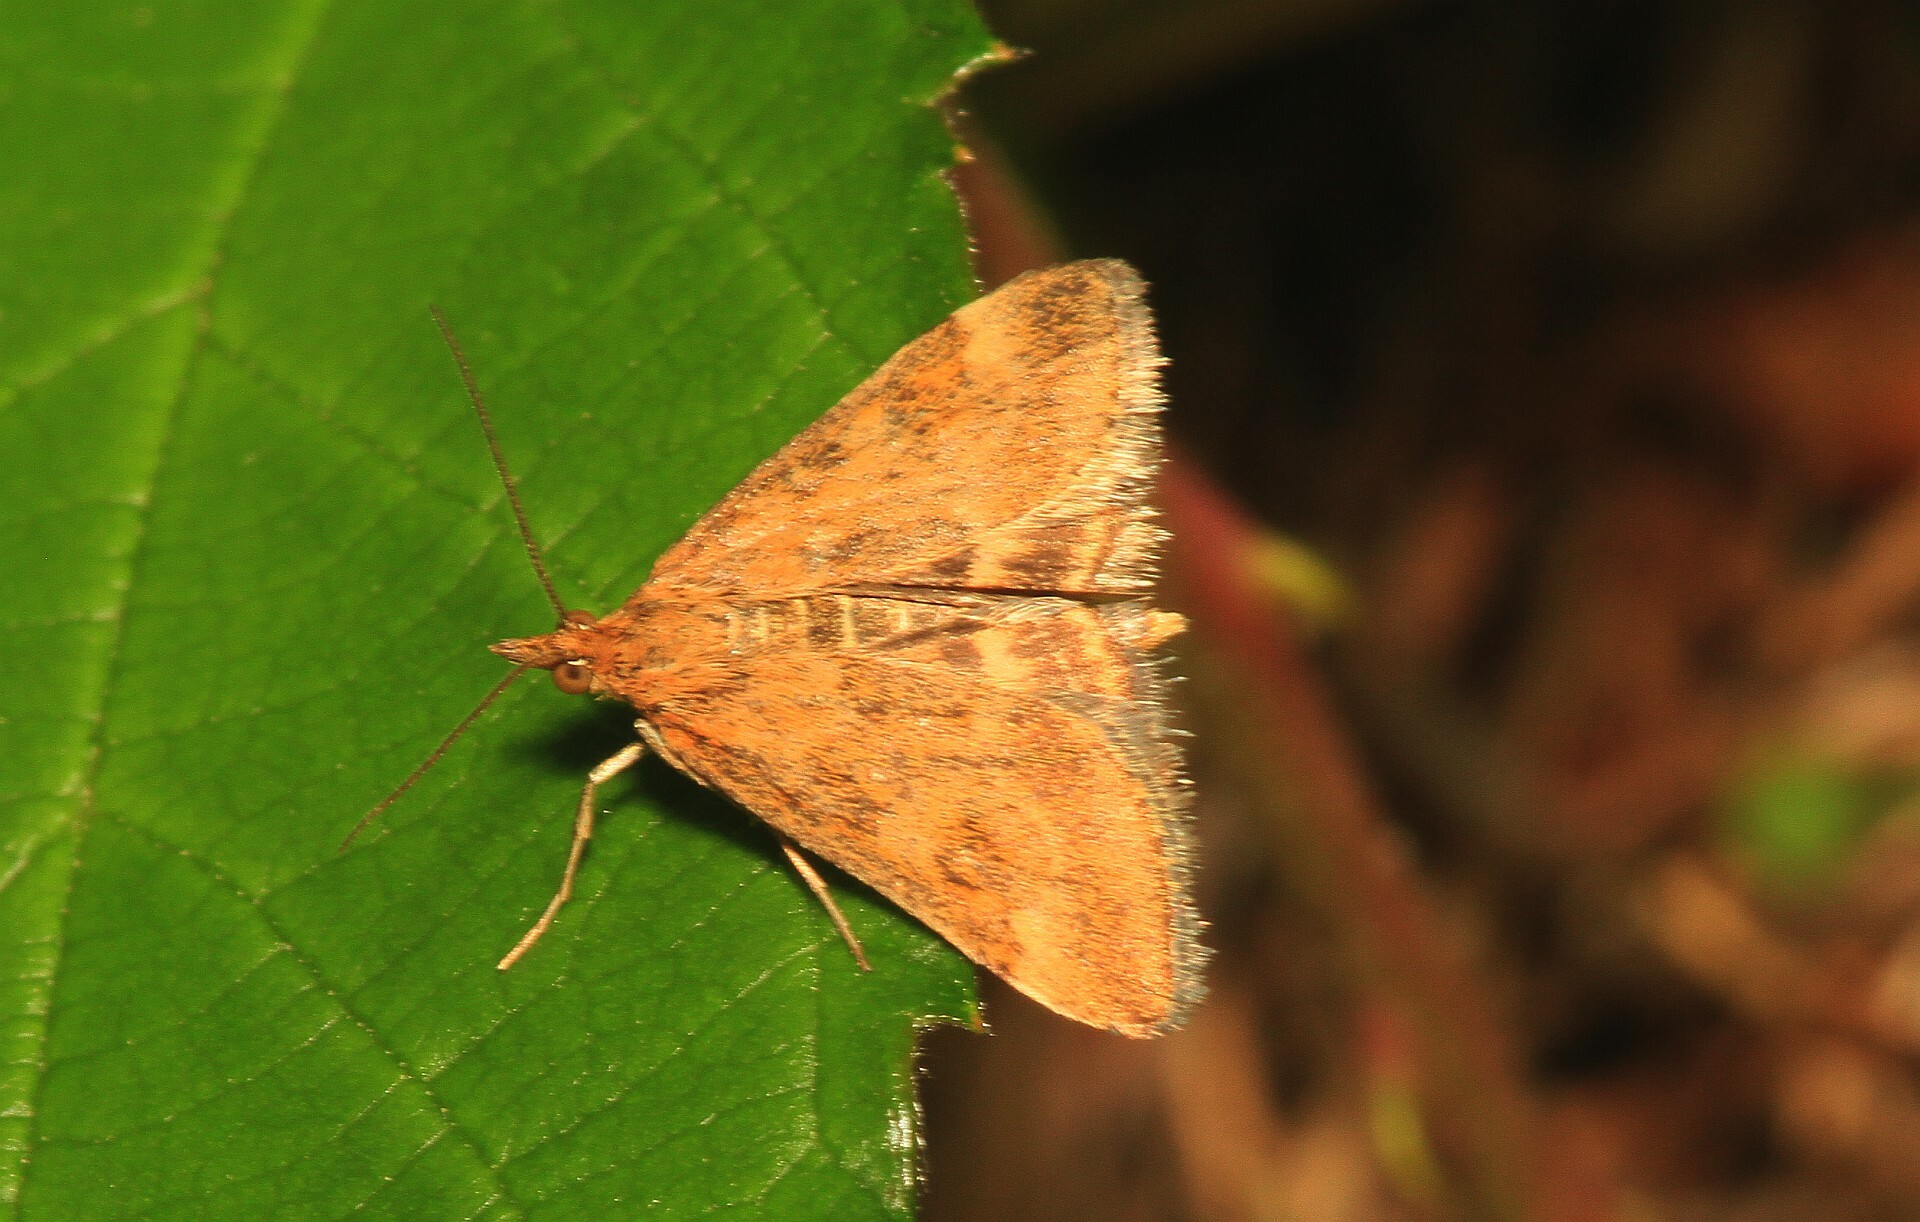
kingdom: Animalia
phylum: Arthropoda
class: Insecta
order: Lepidoptera
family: Crambidae
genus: Pyrausta
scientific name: Pyrausta despicata
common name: Straw-barred pearl
